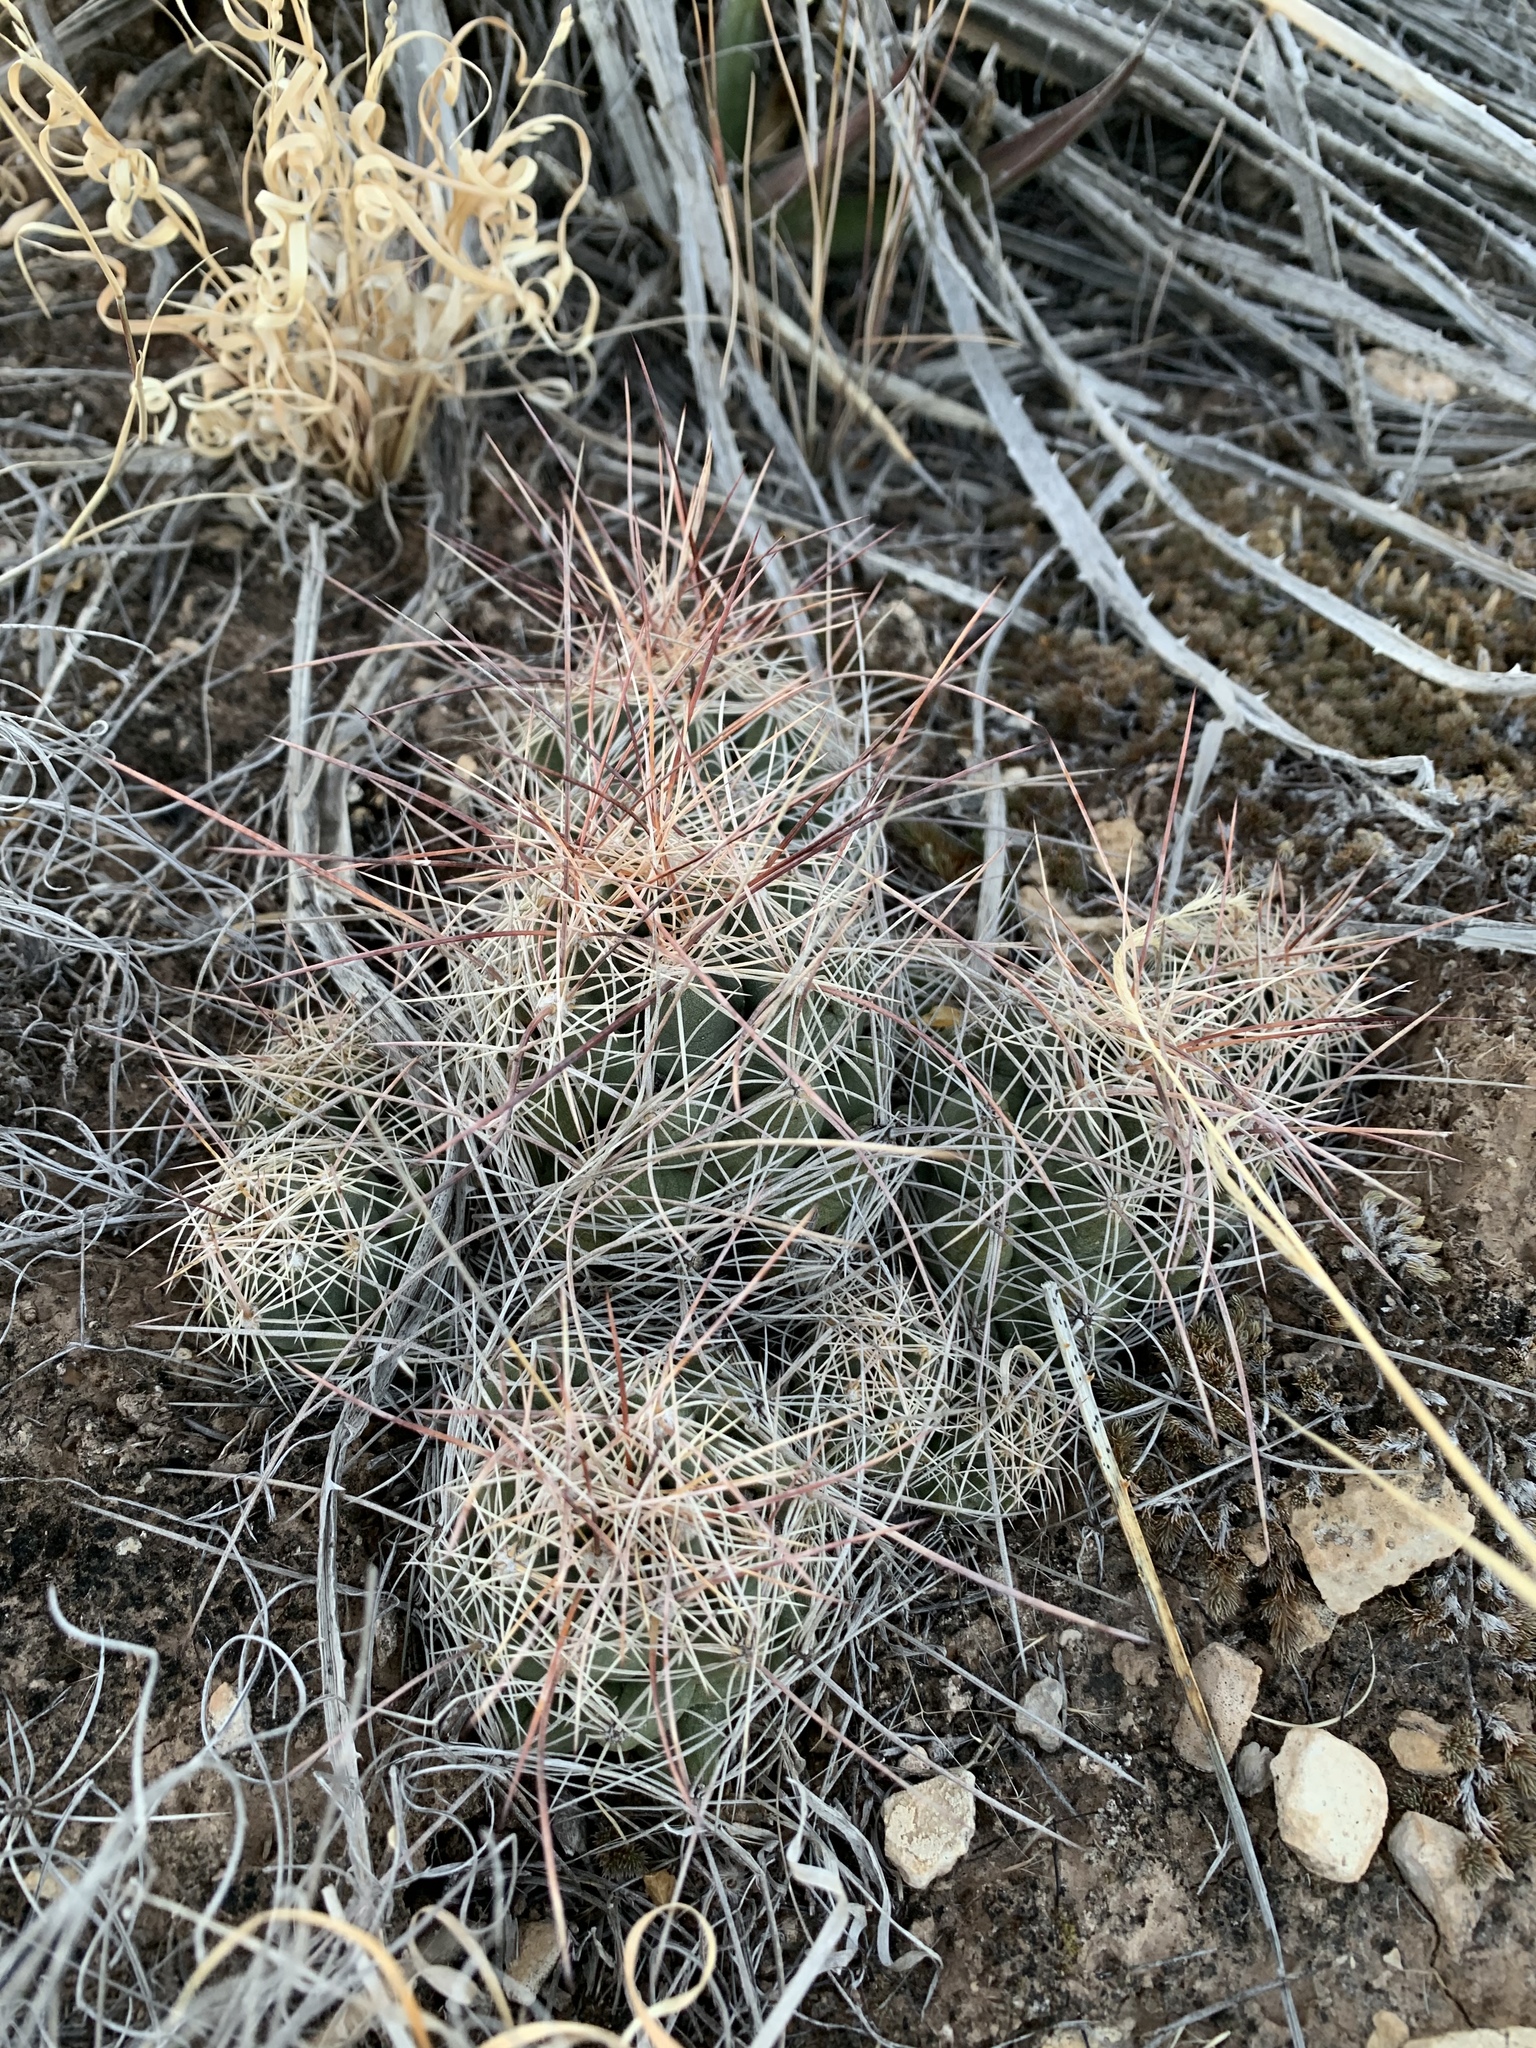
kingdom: Plantae
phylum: Tracheophyta
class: Magnoliopsida
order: Caryophyllales
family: Cactaceae
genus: Coryphantha
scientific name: Coryphantha macromeris
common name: Nipple beehive cactus
